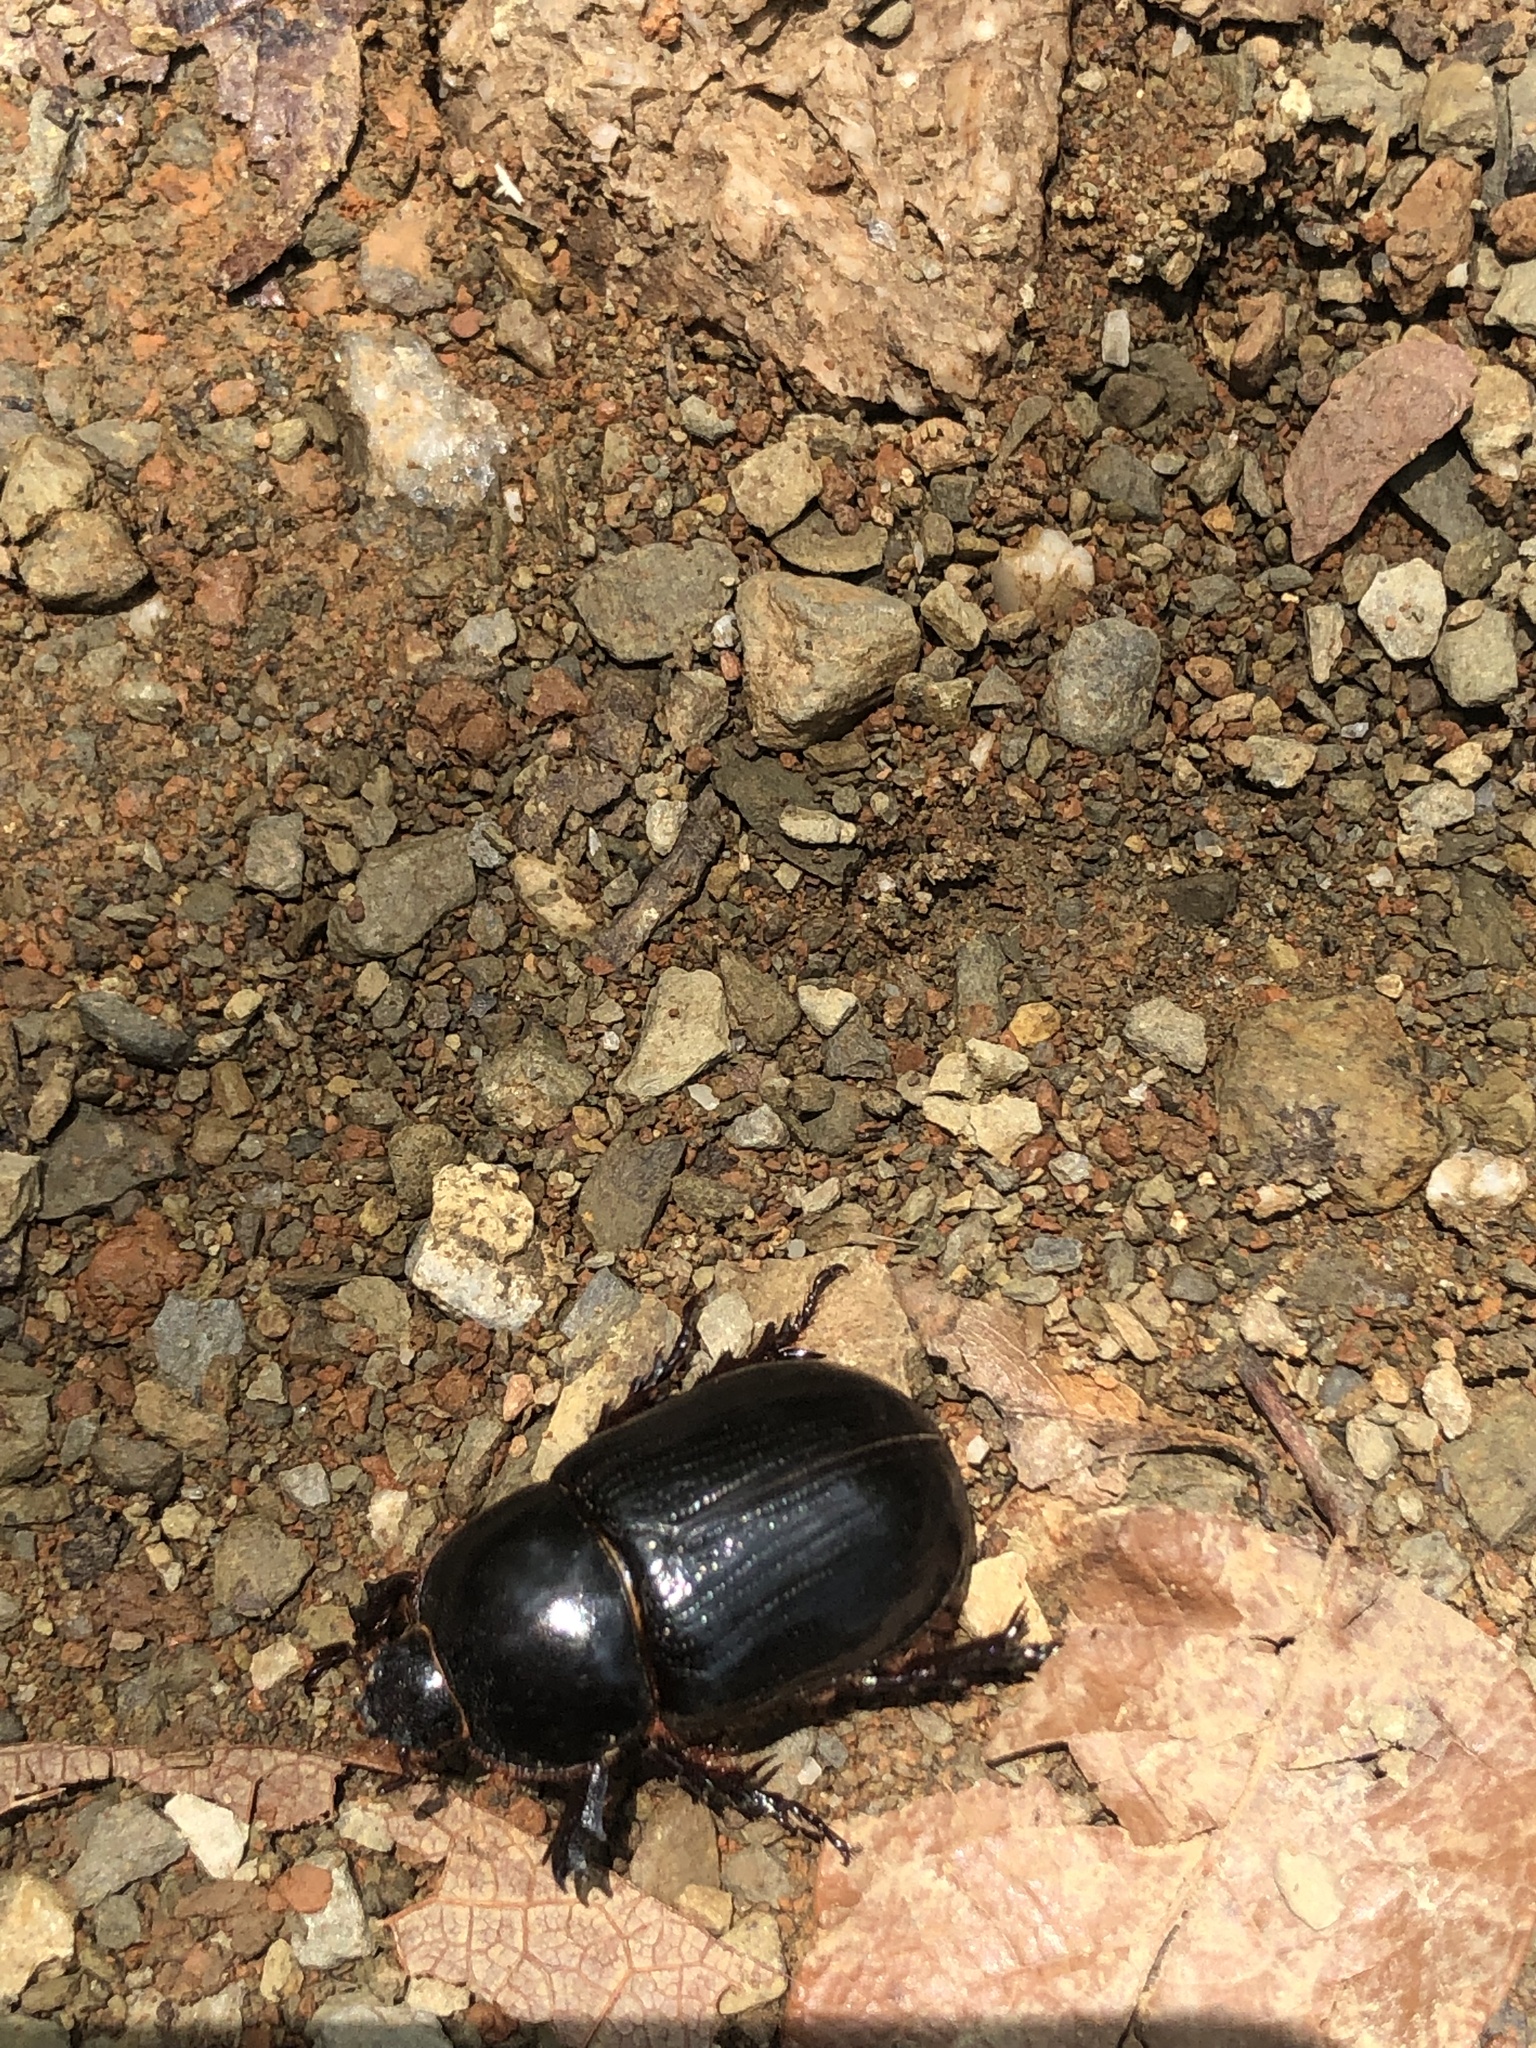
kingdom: Animalia
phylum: Arthropoda
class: Insecta
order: Coleoptera
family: Scarabaeidae
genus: Xyloryctes
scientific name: Xyloryctes orientalis
